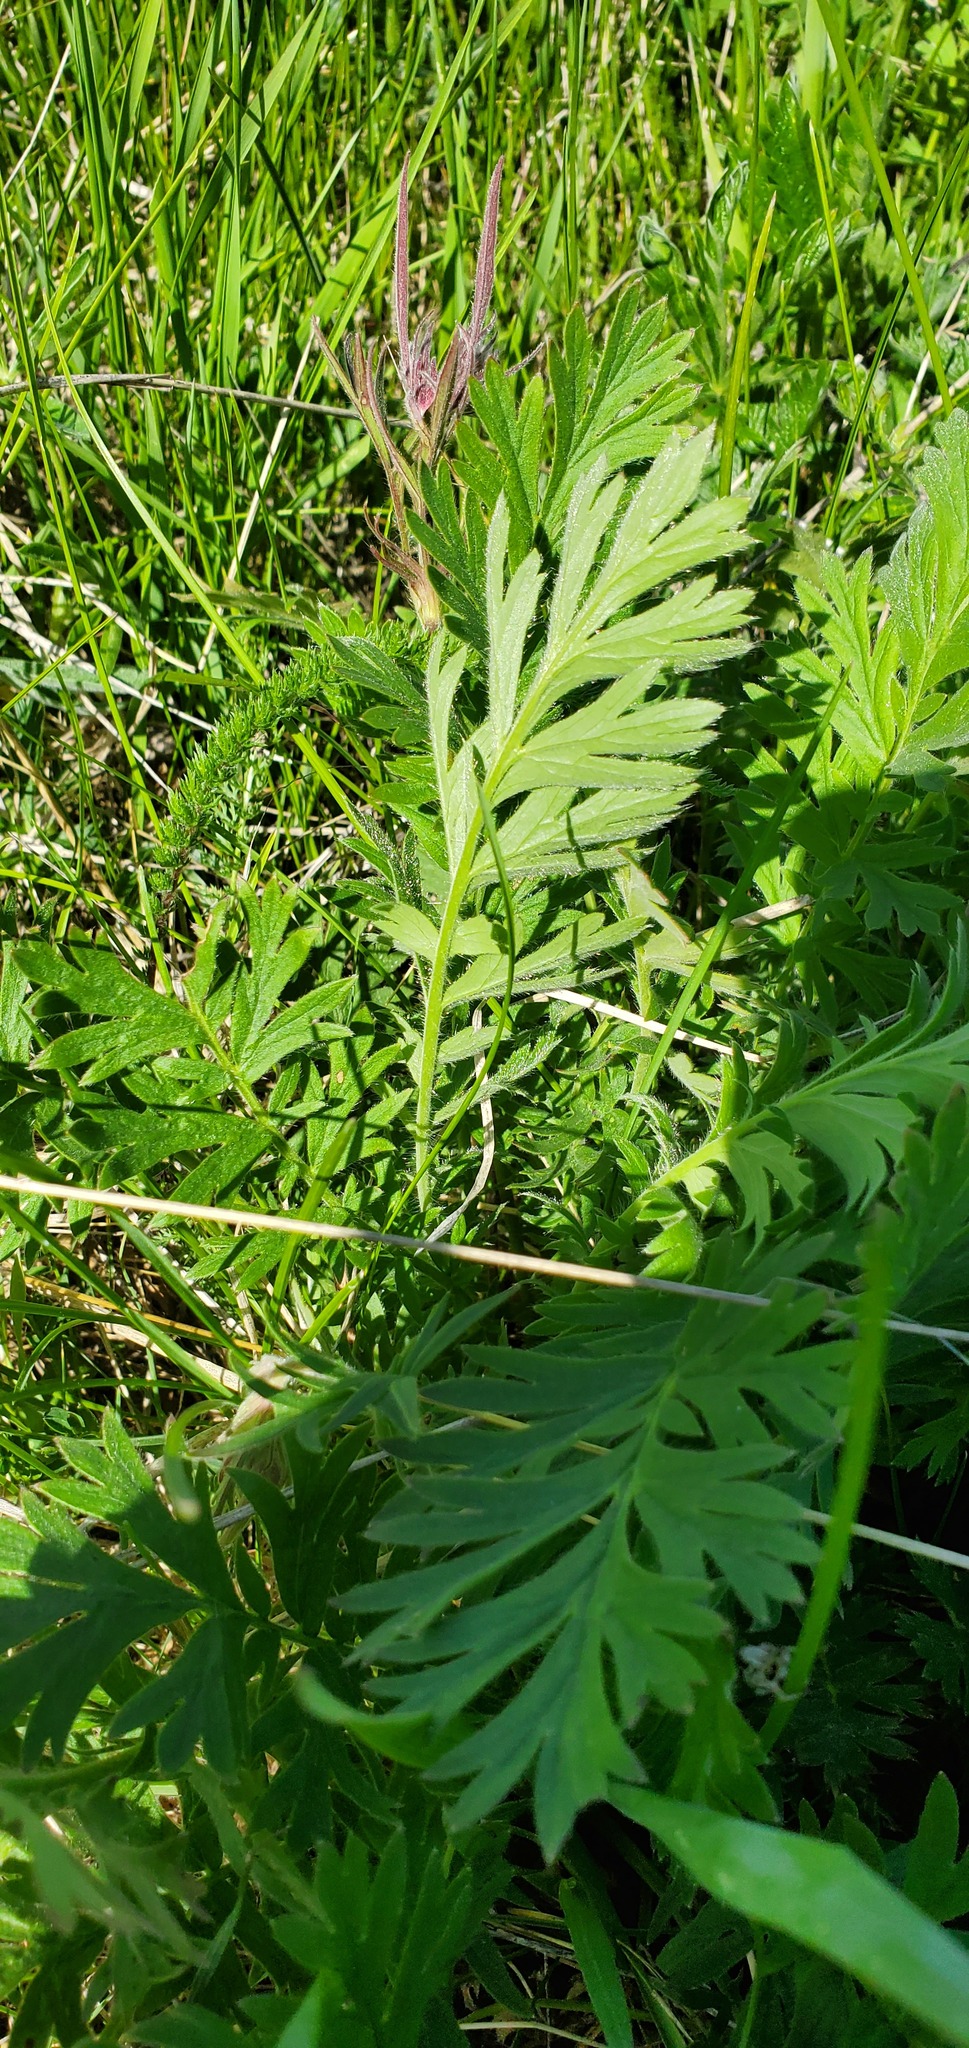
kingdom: Plantae
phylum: Tracheophyta
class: Magnoliopsida
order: Rosales
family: Rosaceae
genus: Geum
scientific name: Geum triflorum
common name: Old man's whiskers
